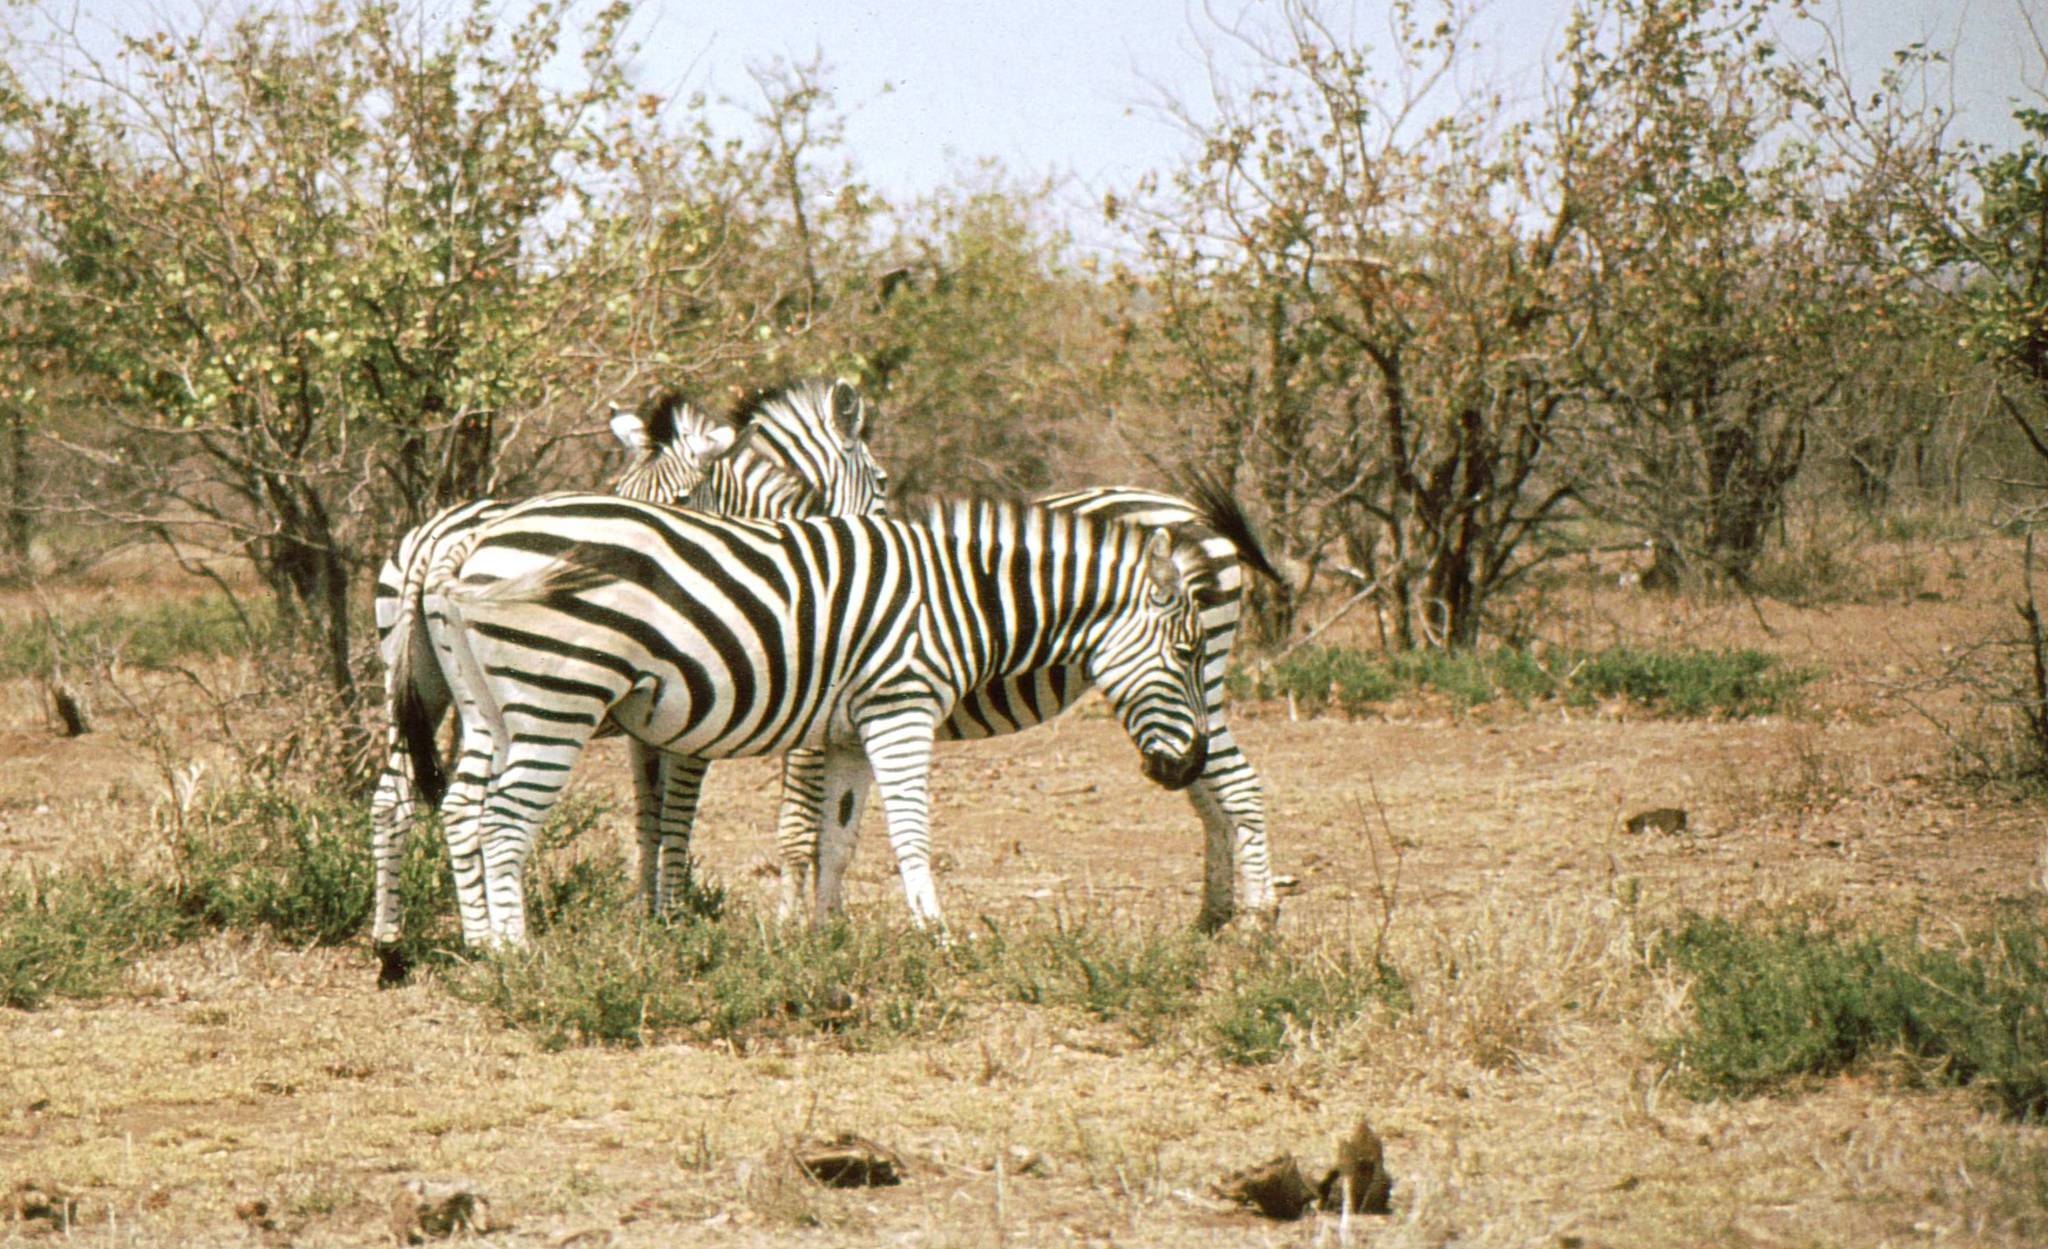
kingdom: Animalia
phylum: Chordata
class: Mammalia
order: Perissodactyla
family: Equidae
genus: Equus
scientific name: Equus quagga
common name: Plains zebra
